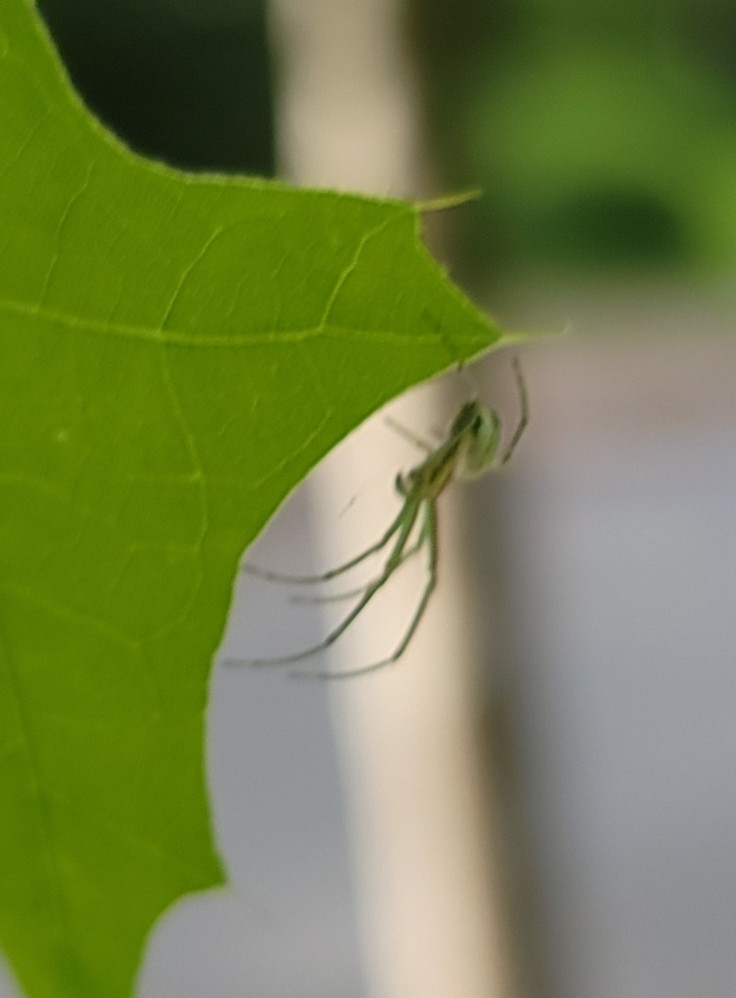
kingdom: Animalia
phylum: Arthropoda
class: Arachnida
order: Araneae
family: Tetragnathidae
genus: Leucauge
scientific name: Leucauge venusta
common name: Longjawed orb weavers
